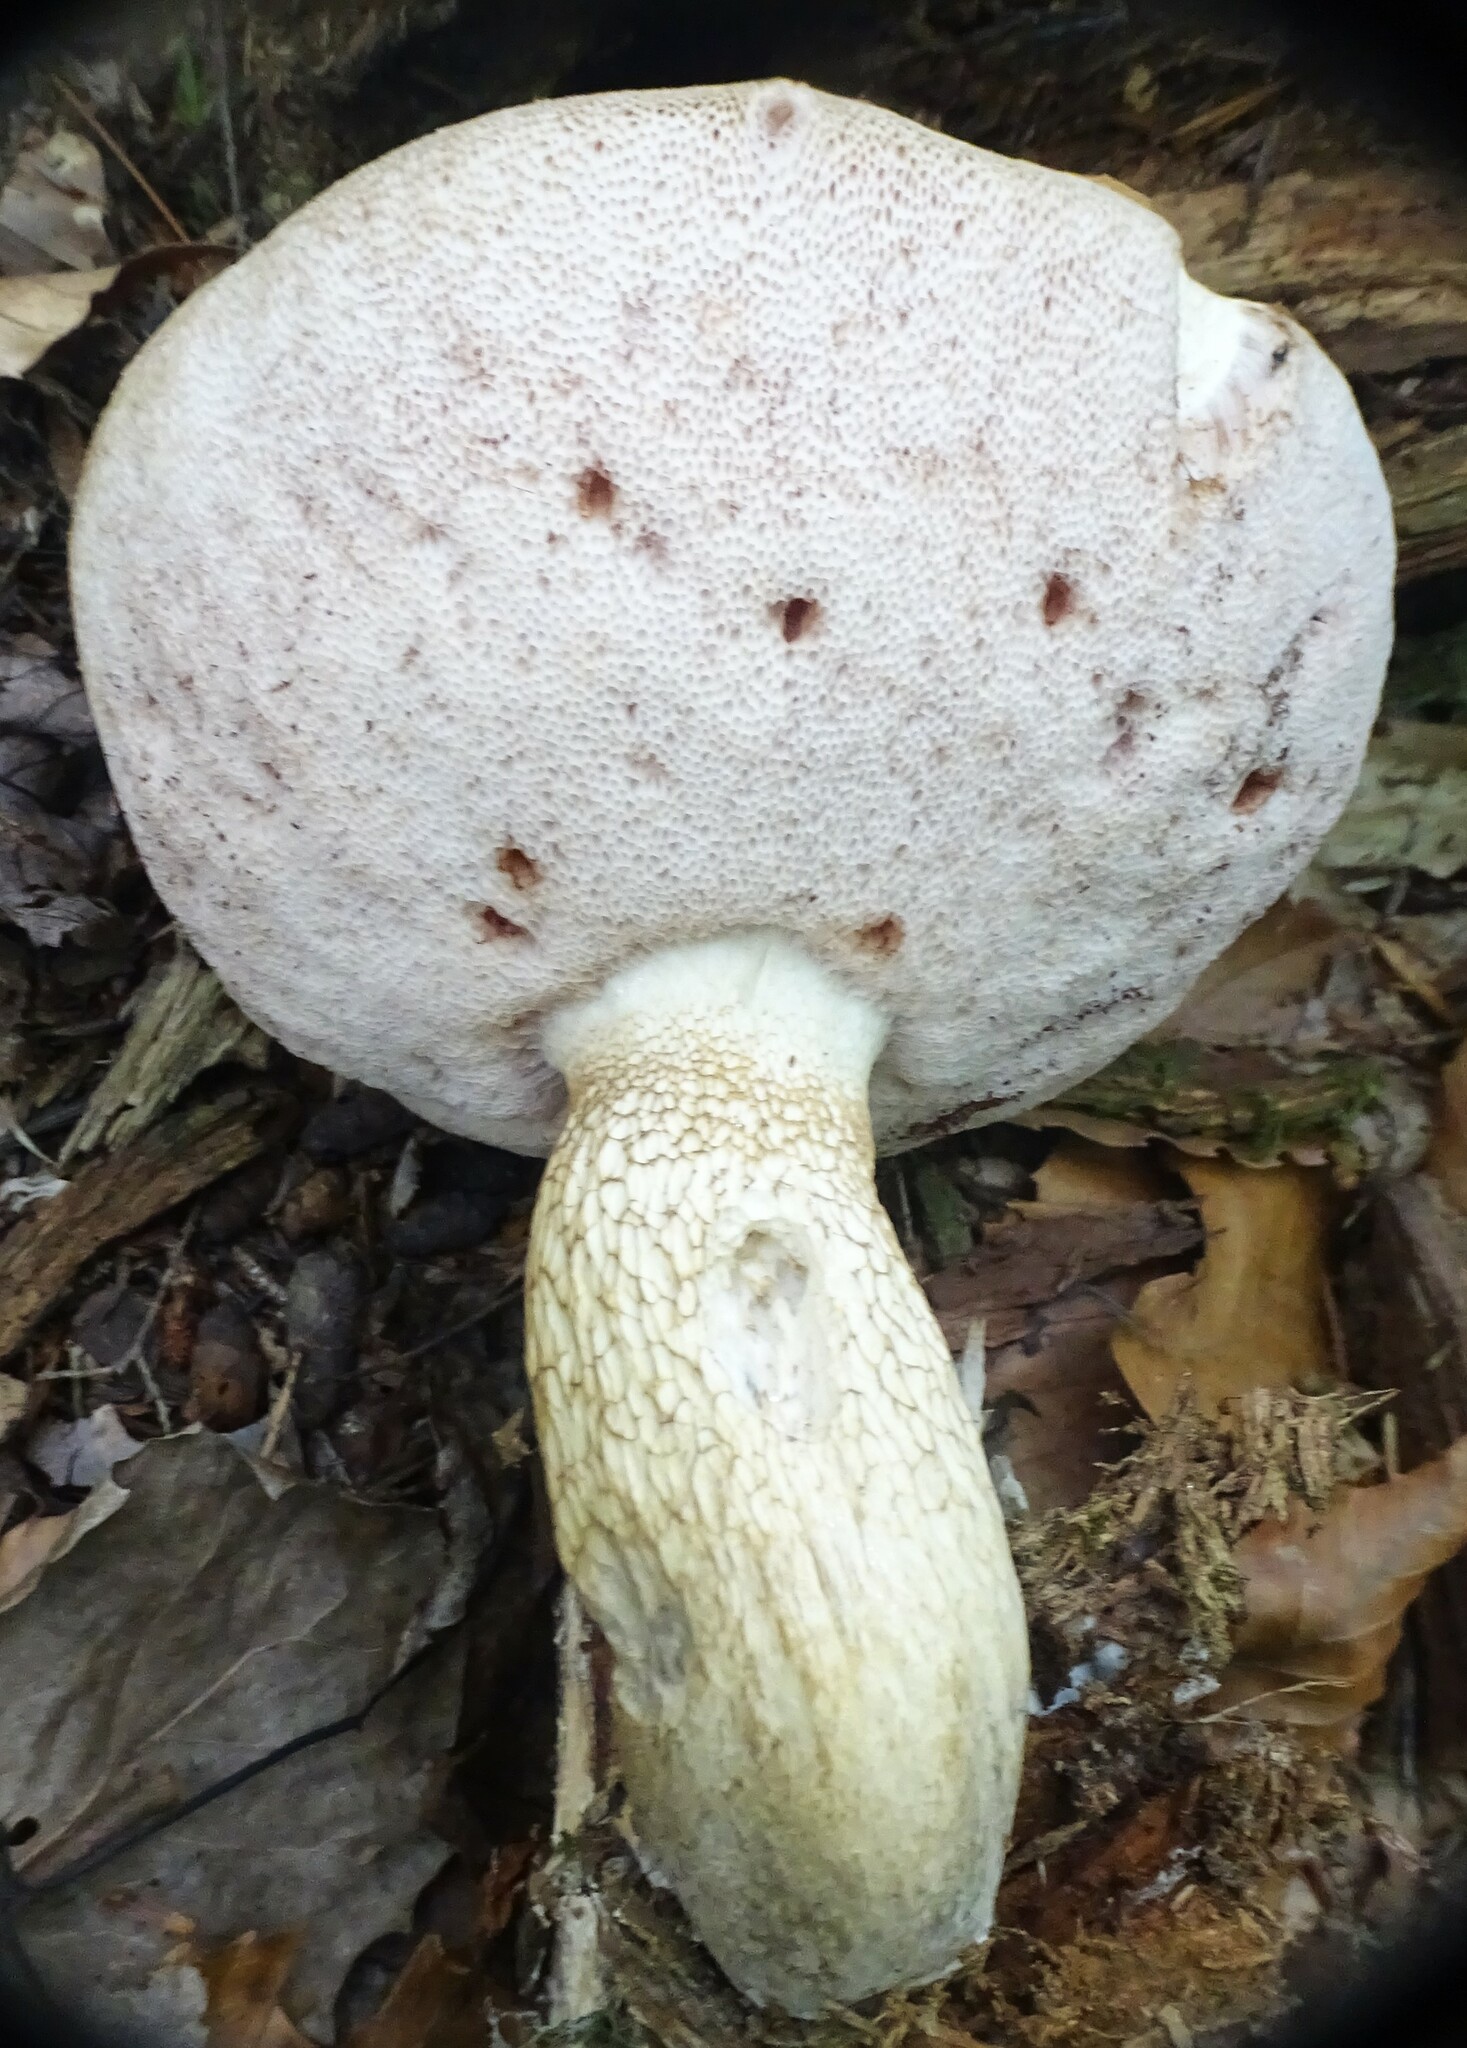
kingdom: Fungi
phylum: Basidiomycota
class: Agaricomycetes
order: Boletales
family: Boletaceae
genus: Tylopilus
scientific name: Tylopilus felleus
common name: Bitter bolete
